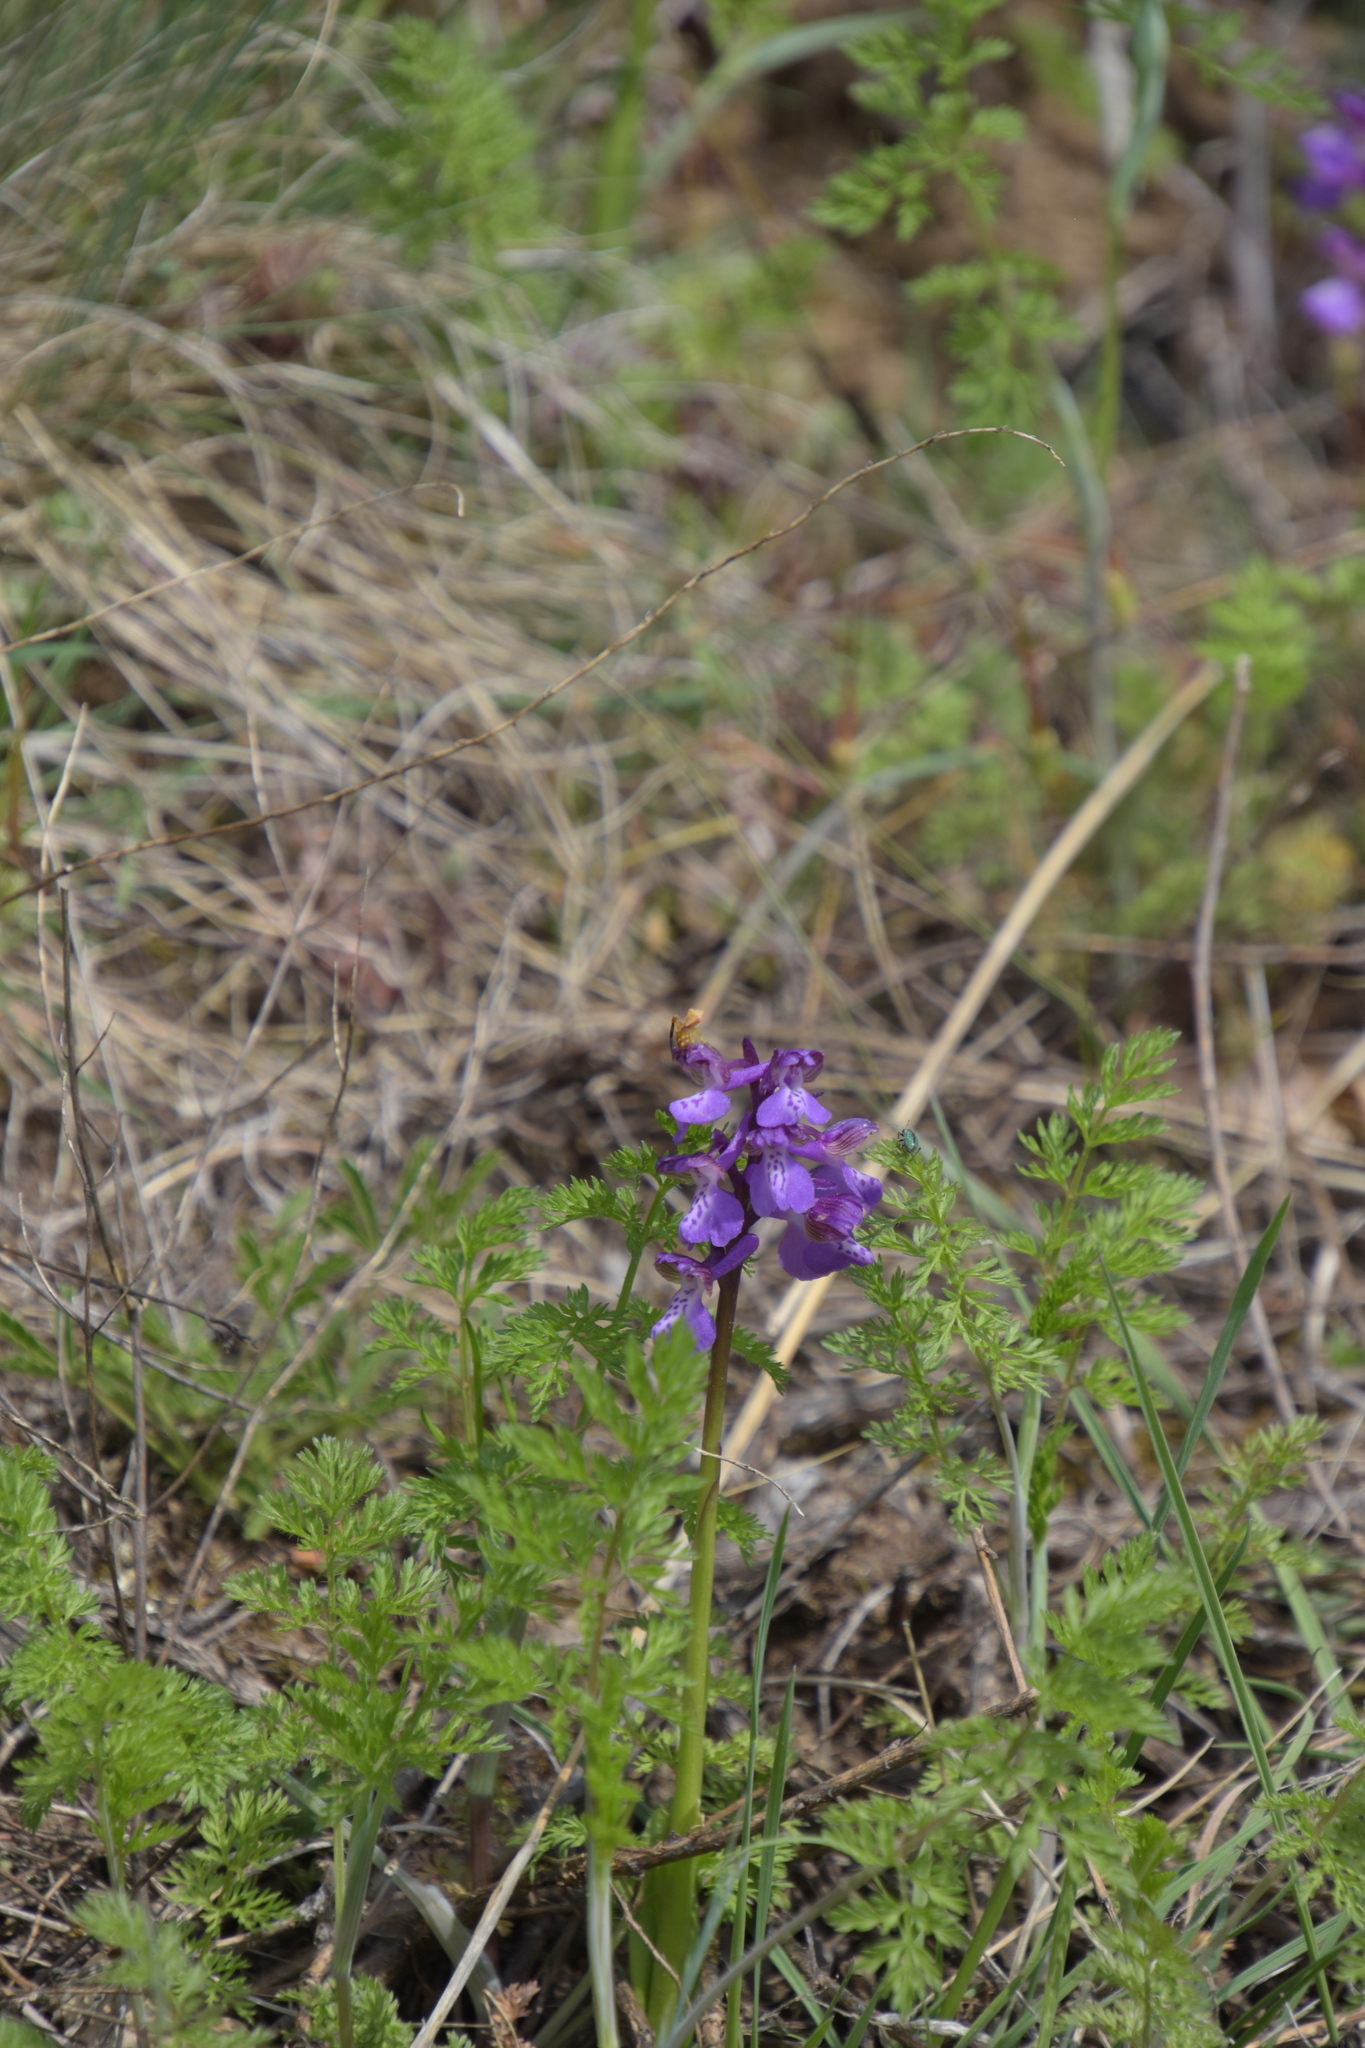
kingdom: Plantae
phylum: Tracheophyta
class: Liliopsida
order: Asparagales
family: Orchidaceae
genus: Anacamptis
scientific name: Anacamptis morio
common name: Green-winged orchid
